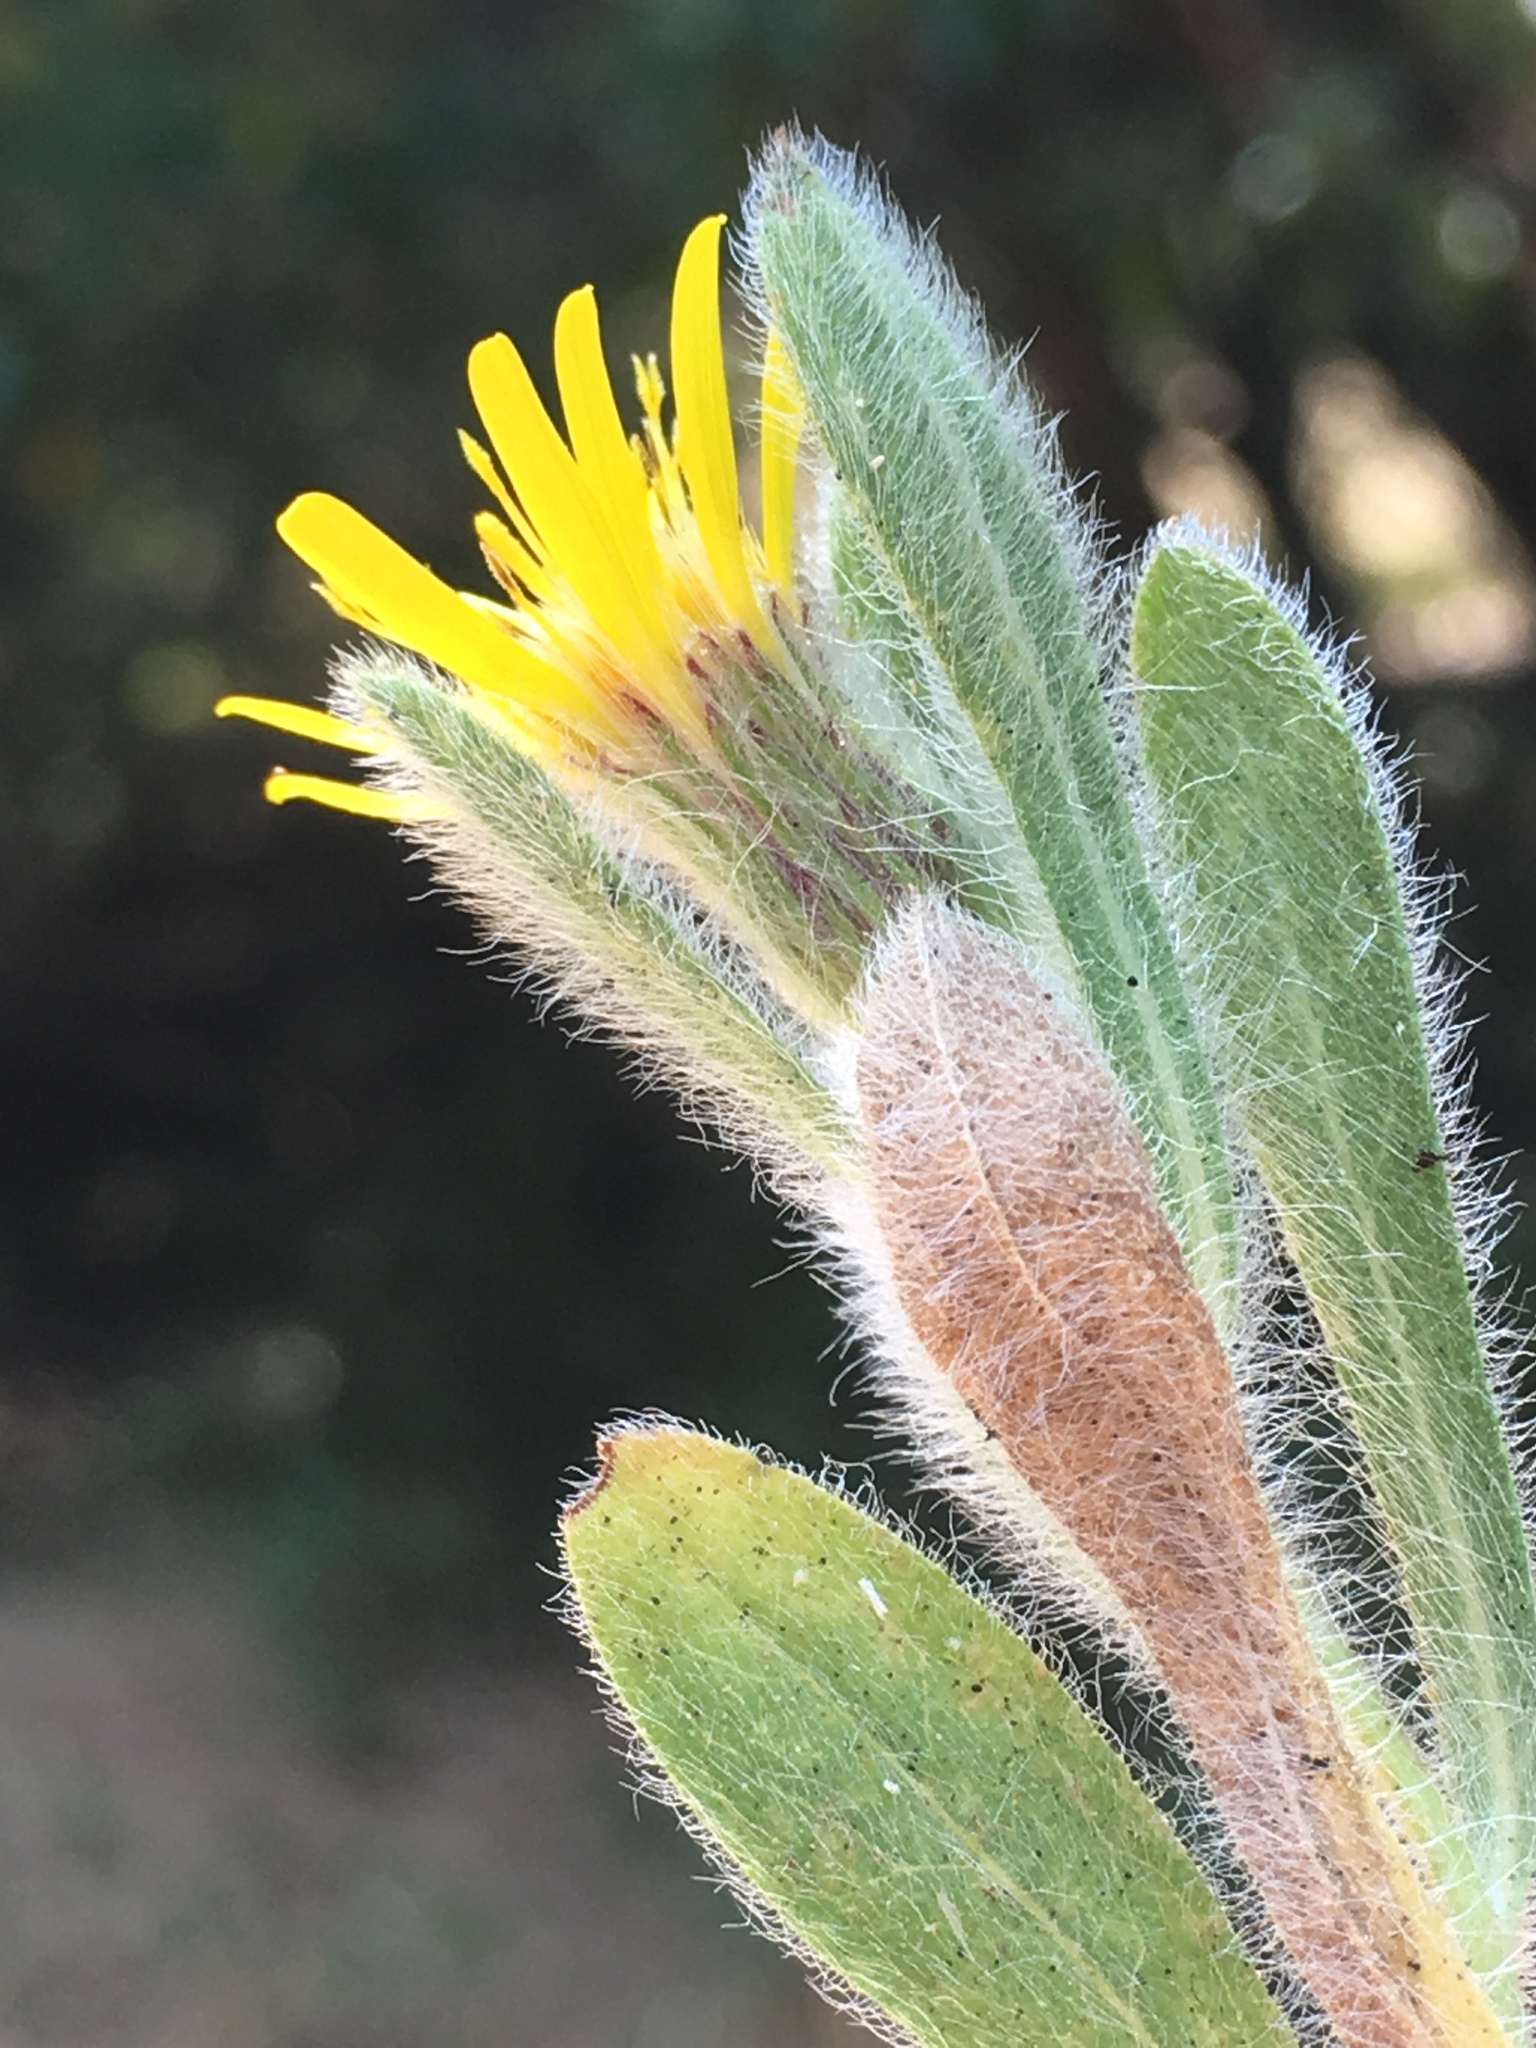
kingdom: Plantae
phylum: Tracheophyta
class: Magnoliopsida
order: Asterales
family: Asteraceae
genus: Heterotheca
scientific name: Heterotheca sessiliflora
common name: Sessile-flower golden-aster
